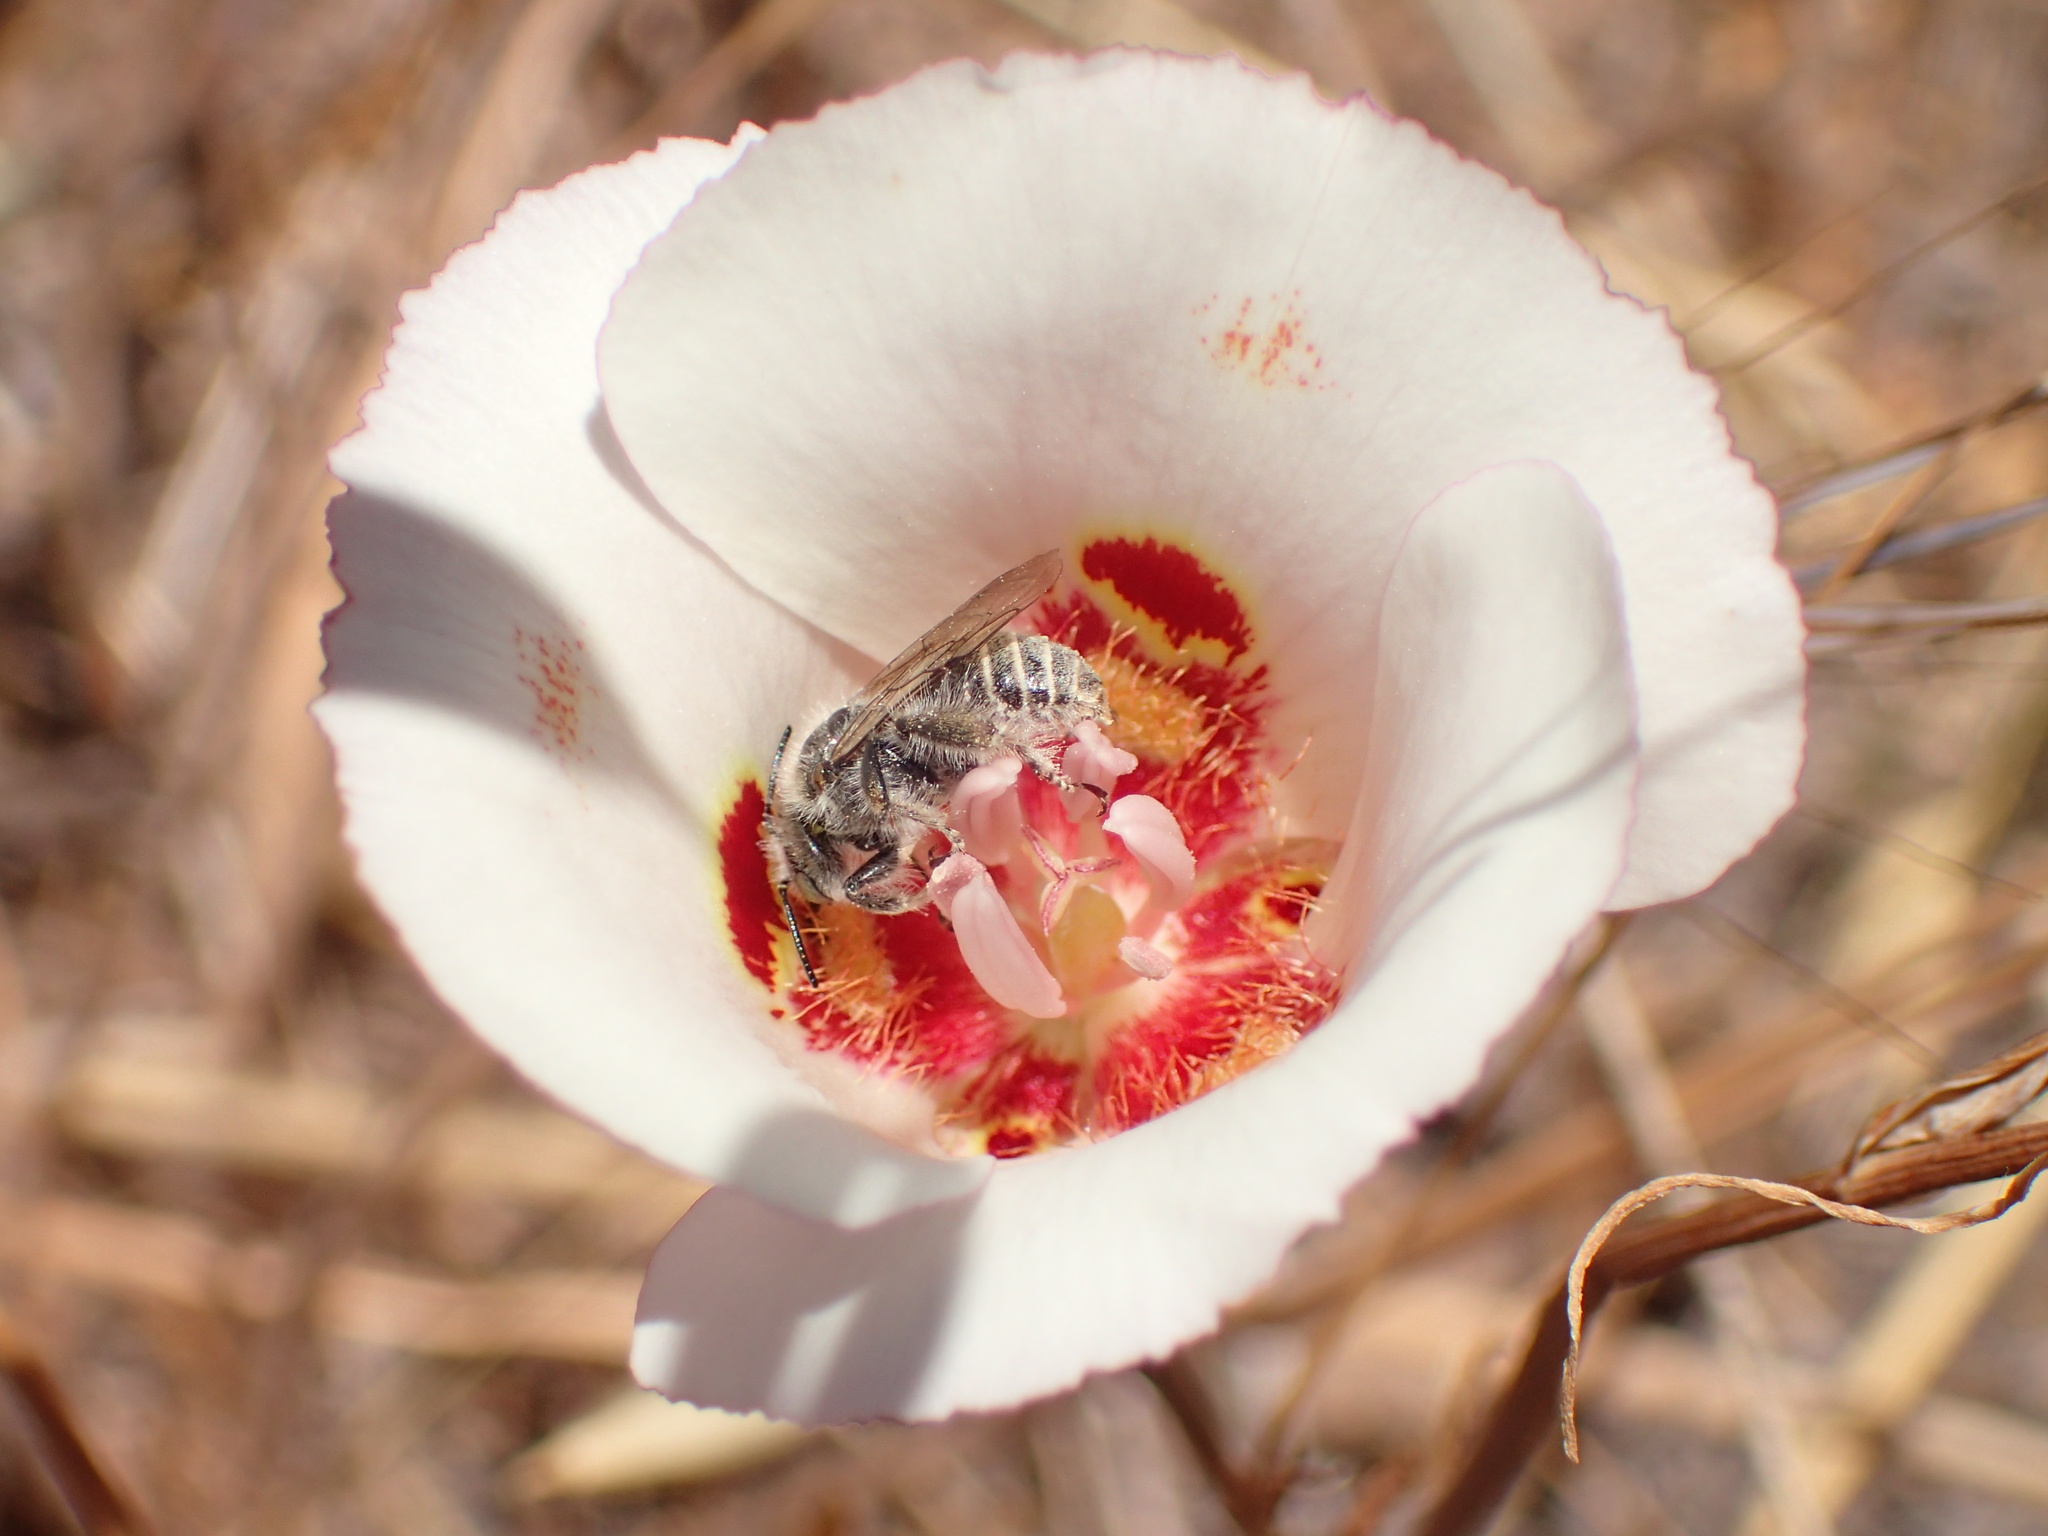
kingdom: Plantae
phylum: Tracheophyta
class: Liliopsida
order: Liliales
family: Liliaceae
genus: Calochortus
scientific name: Calochortus venustus
